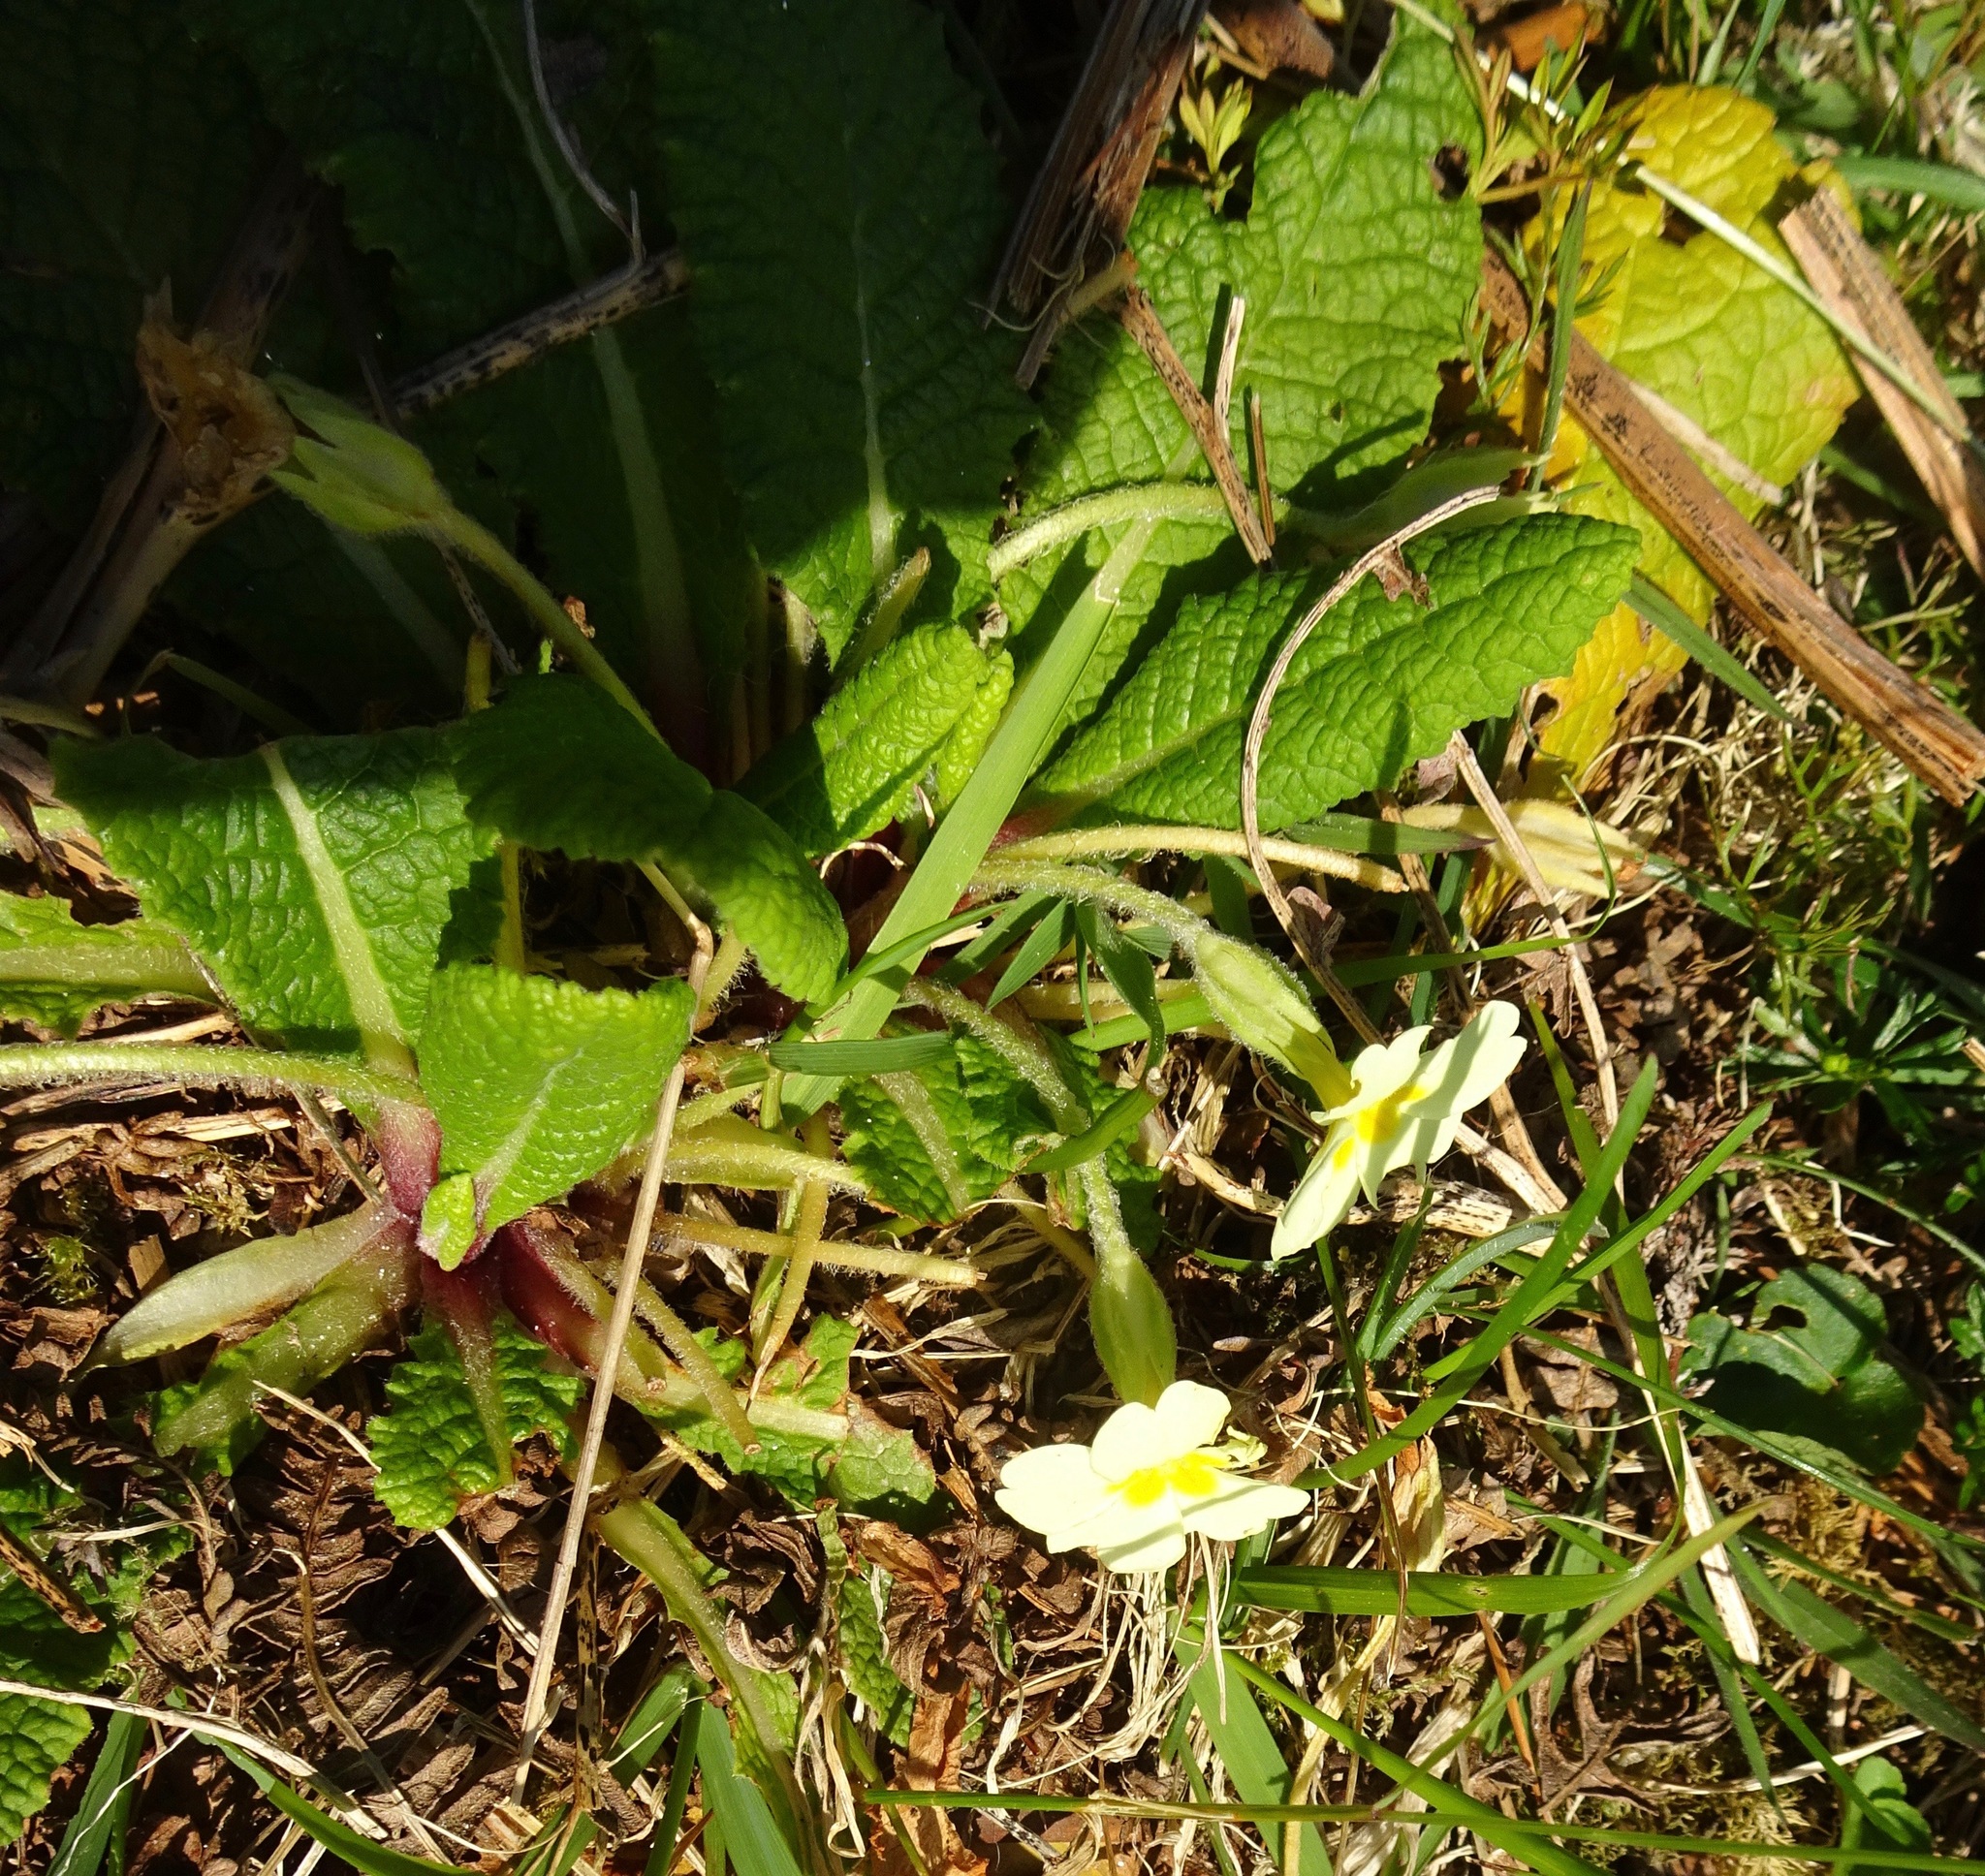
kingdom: Plantae
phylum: Tracheophyta
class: Magnoliopsida
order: Ericales
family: Primulaceae
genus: Primula
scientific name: Primula vulgaris
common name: Primrose
